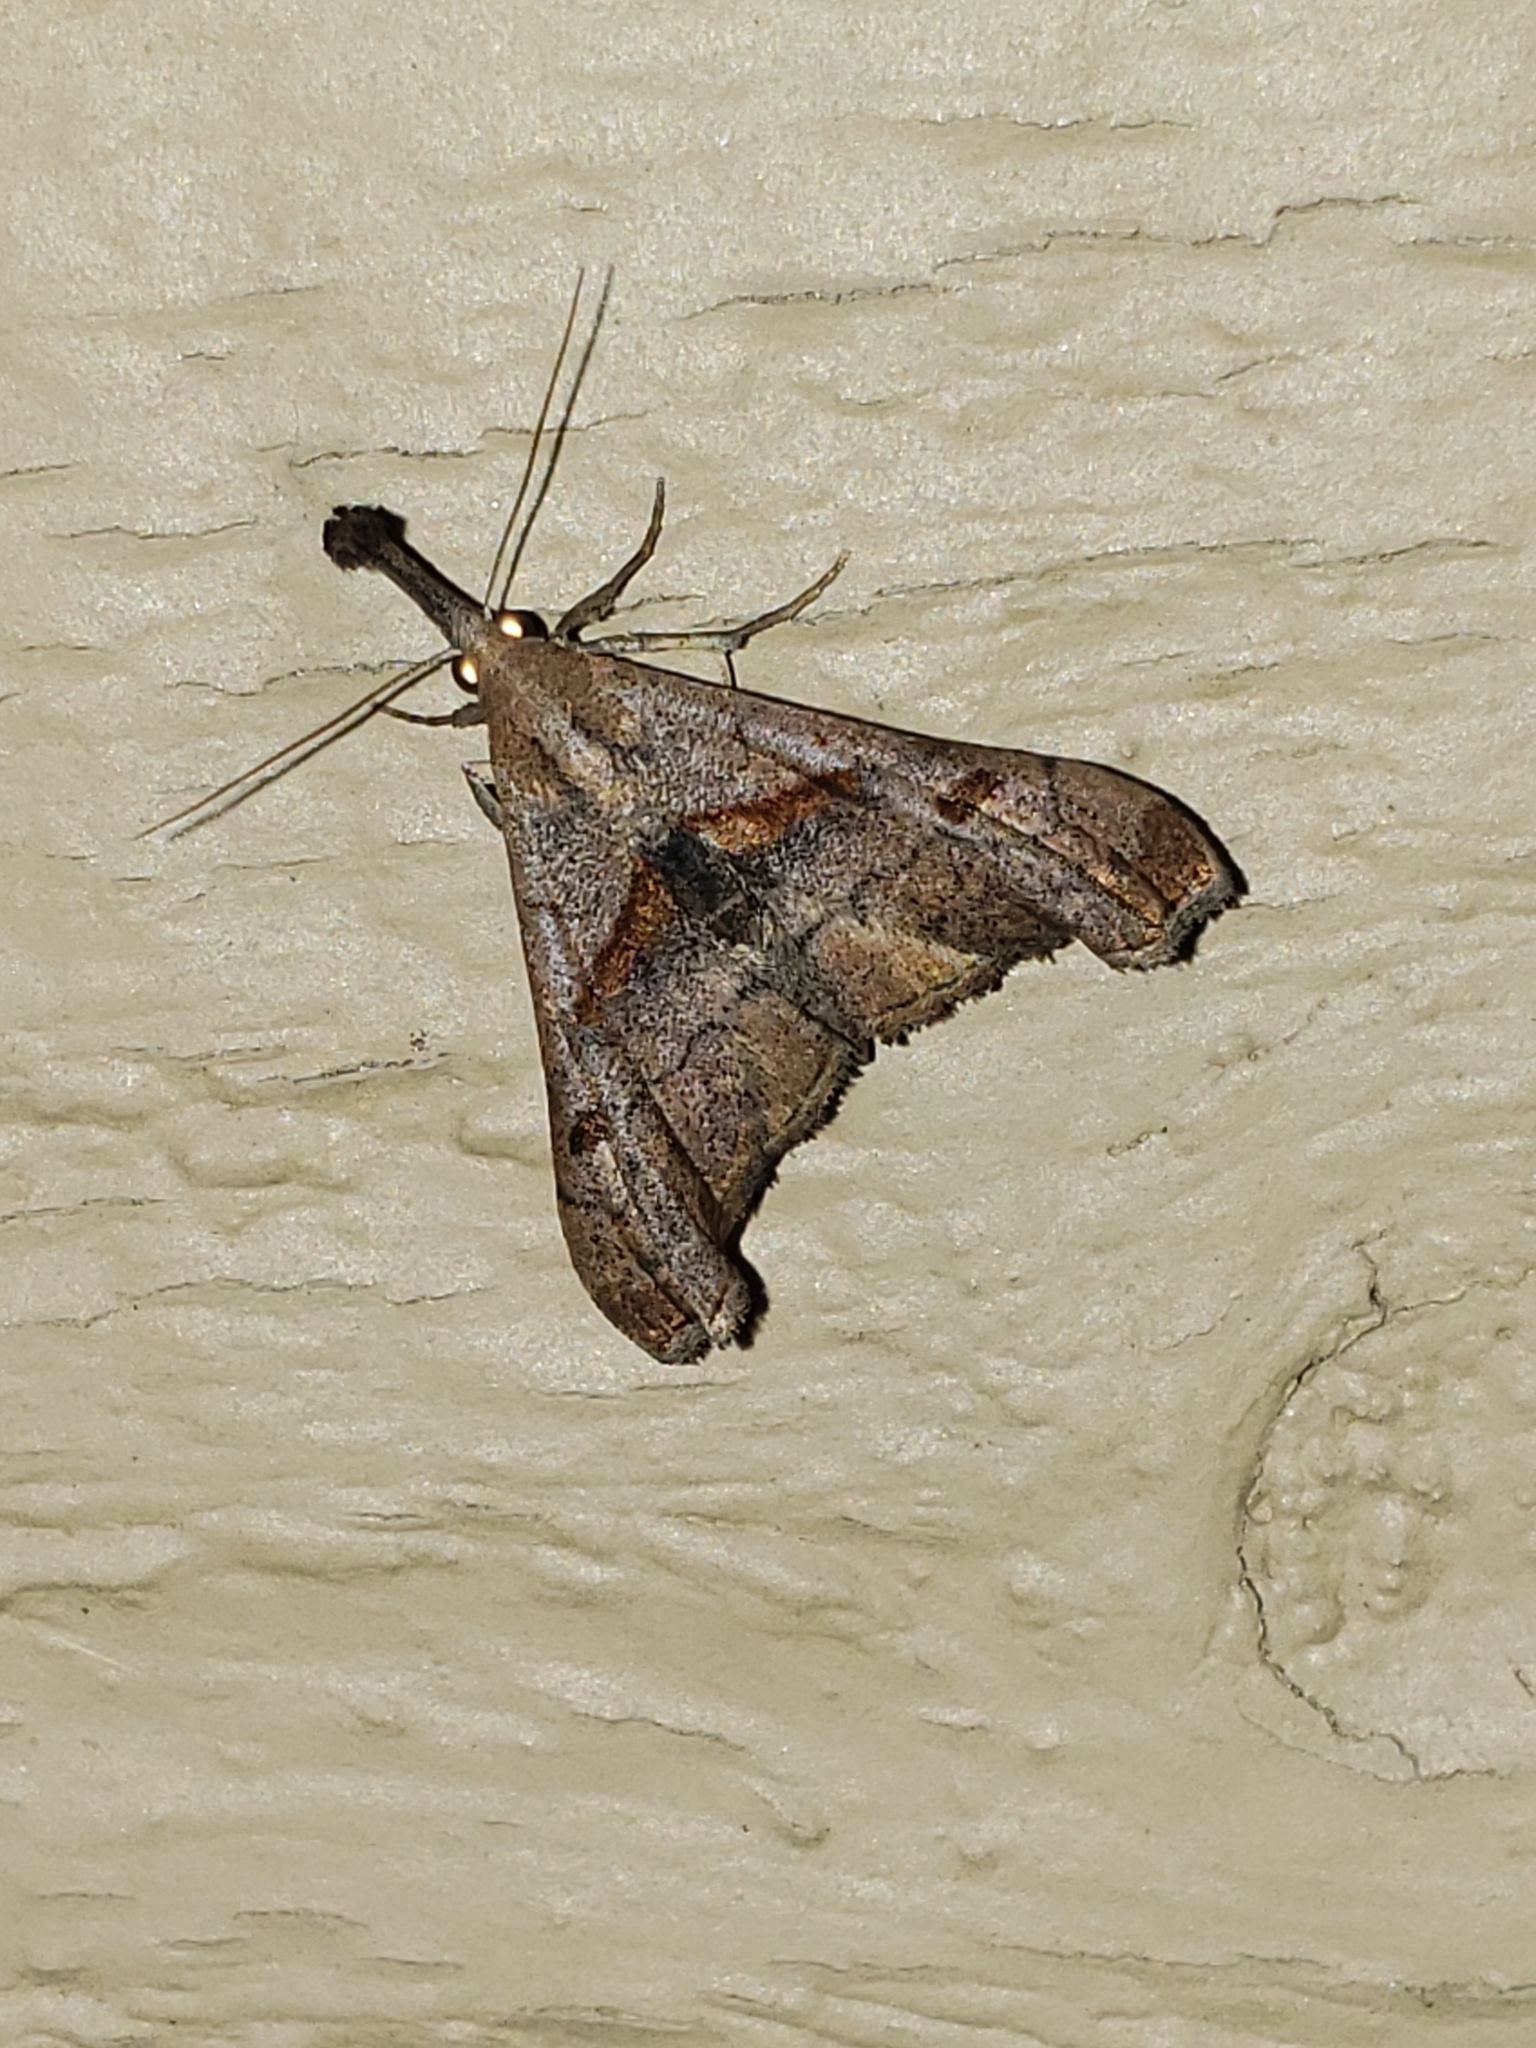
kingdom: Animalia
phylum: Arthropoda
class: Insecta
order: Lepidoptera
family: Erebidae
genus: Palthis
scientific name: Palthis angulalis
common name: Dark-spotted palthis moth
